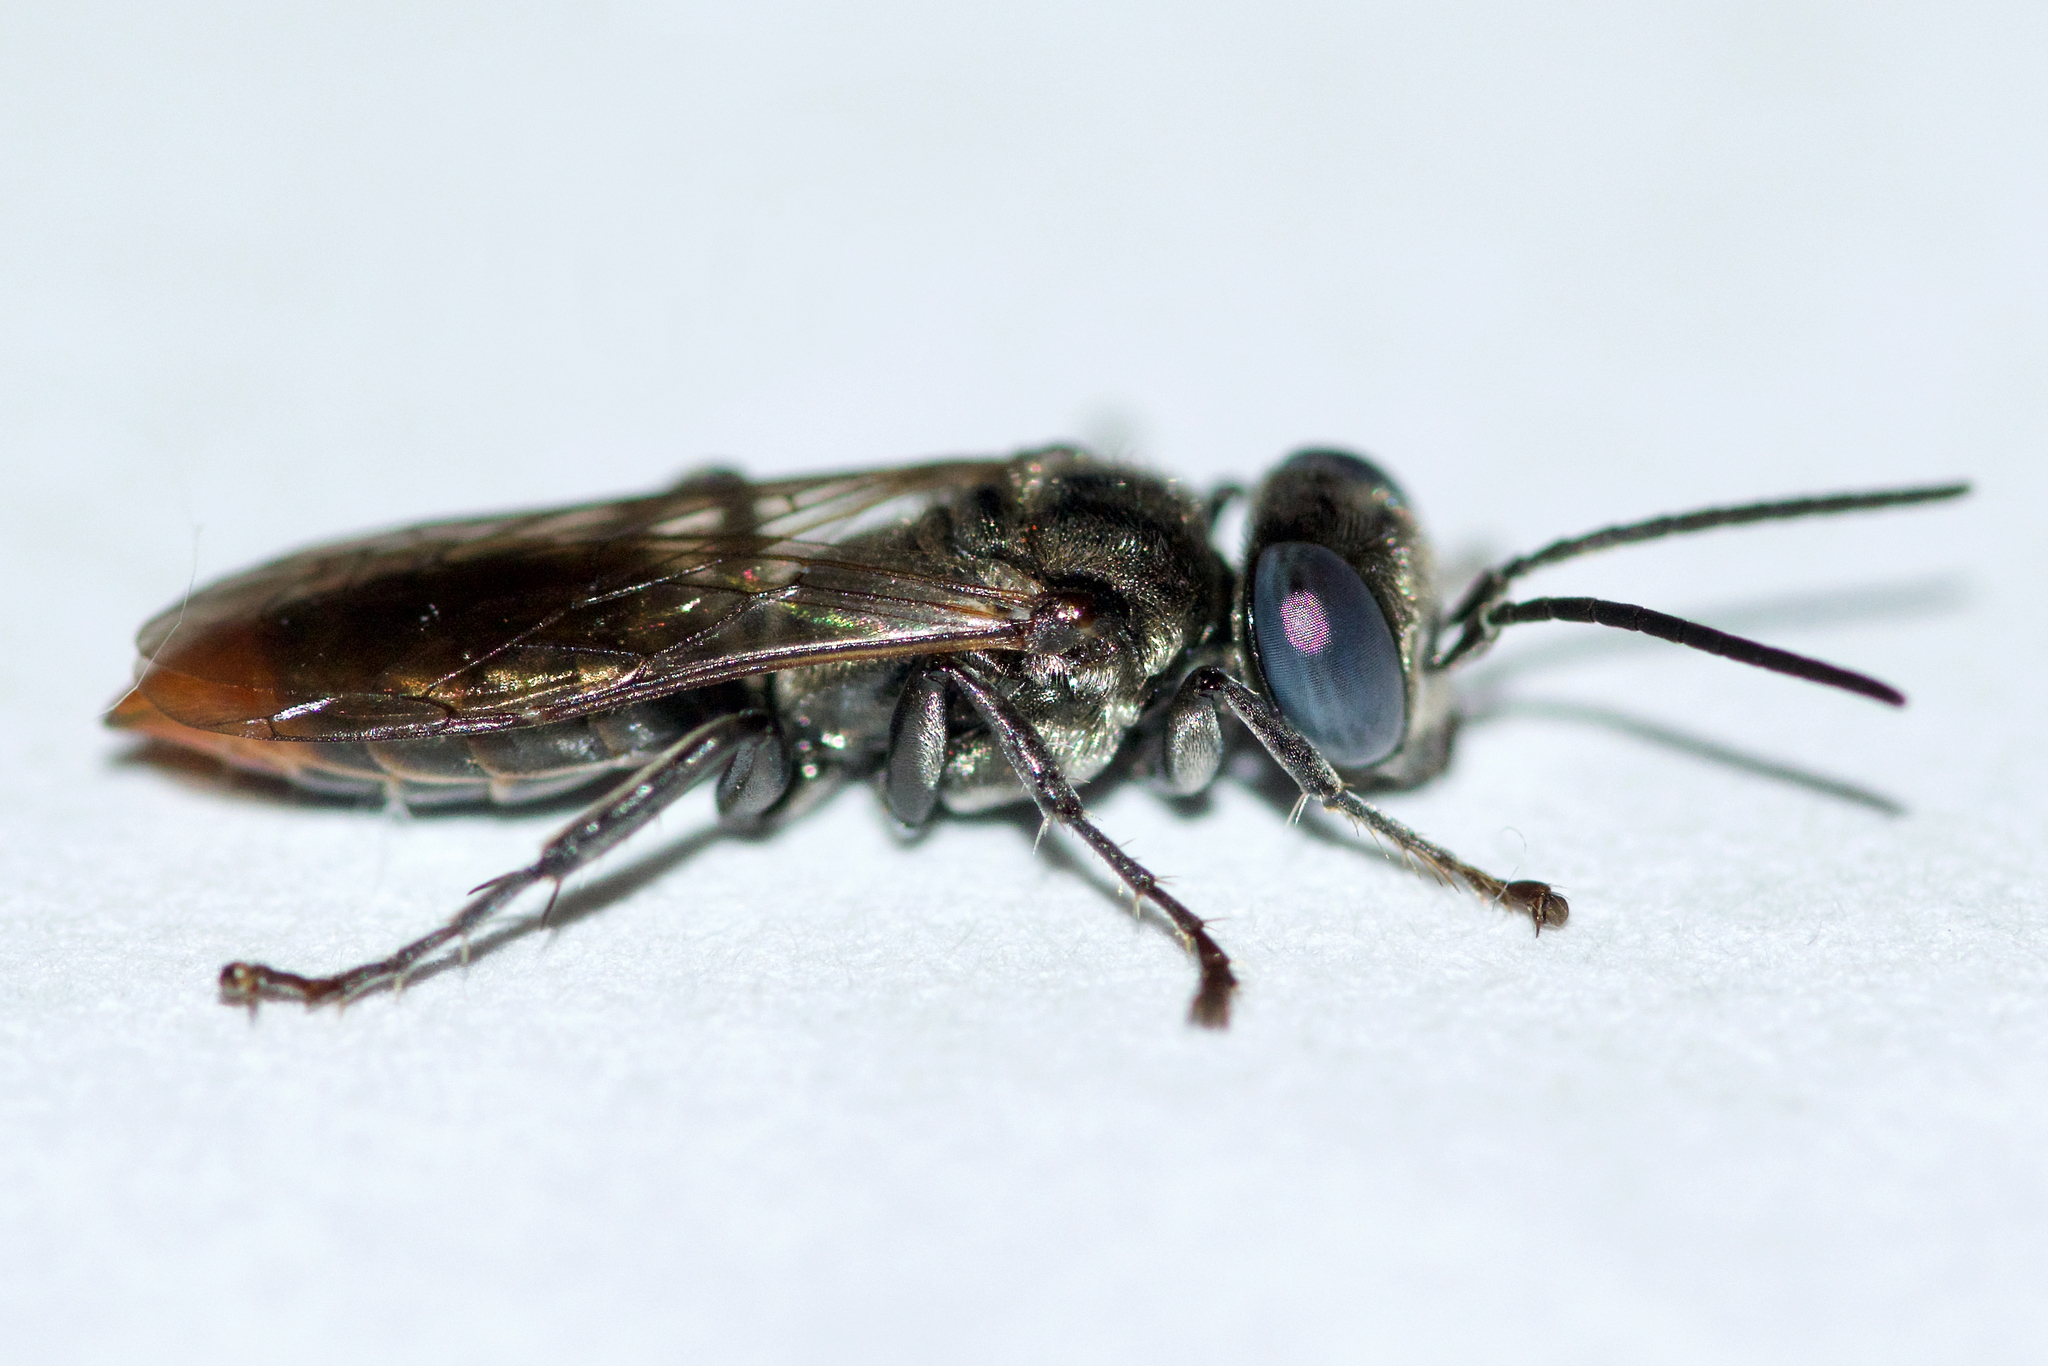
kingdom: Animalia
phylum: Arthropoda
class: Insecta
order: Hymenoptera
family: Crabronidae
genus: Tachysphex
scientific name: Tachysphex terminatus
